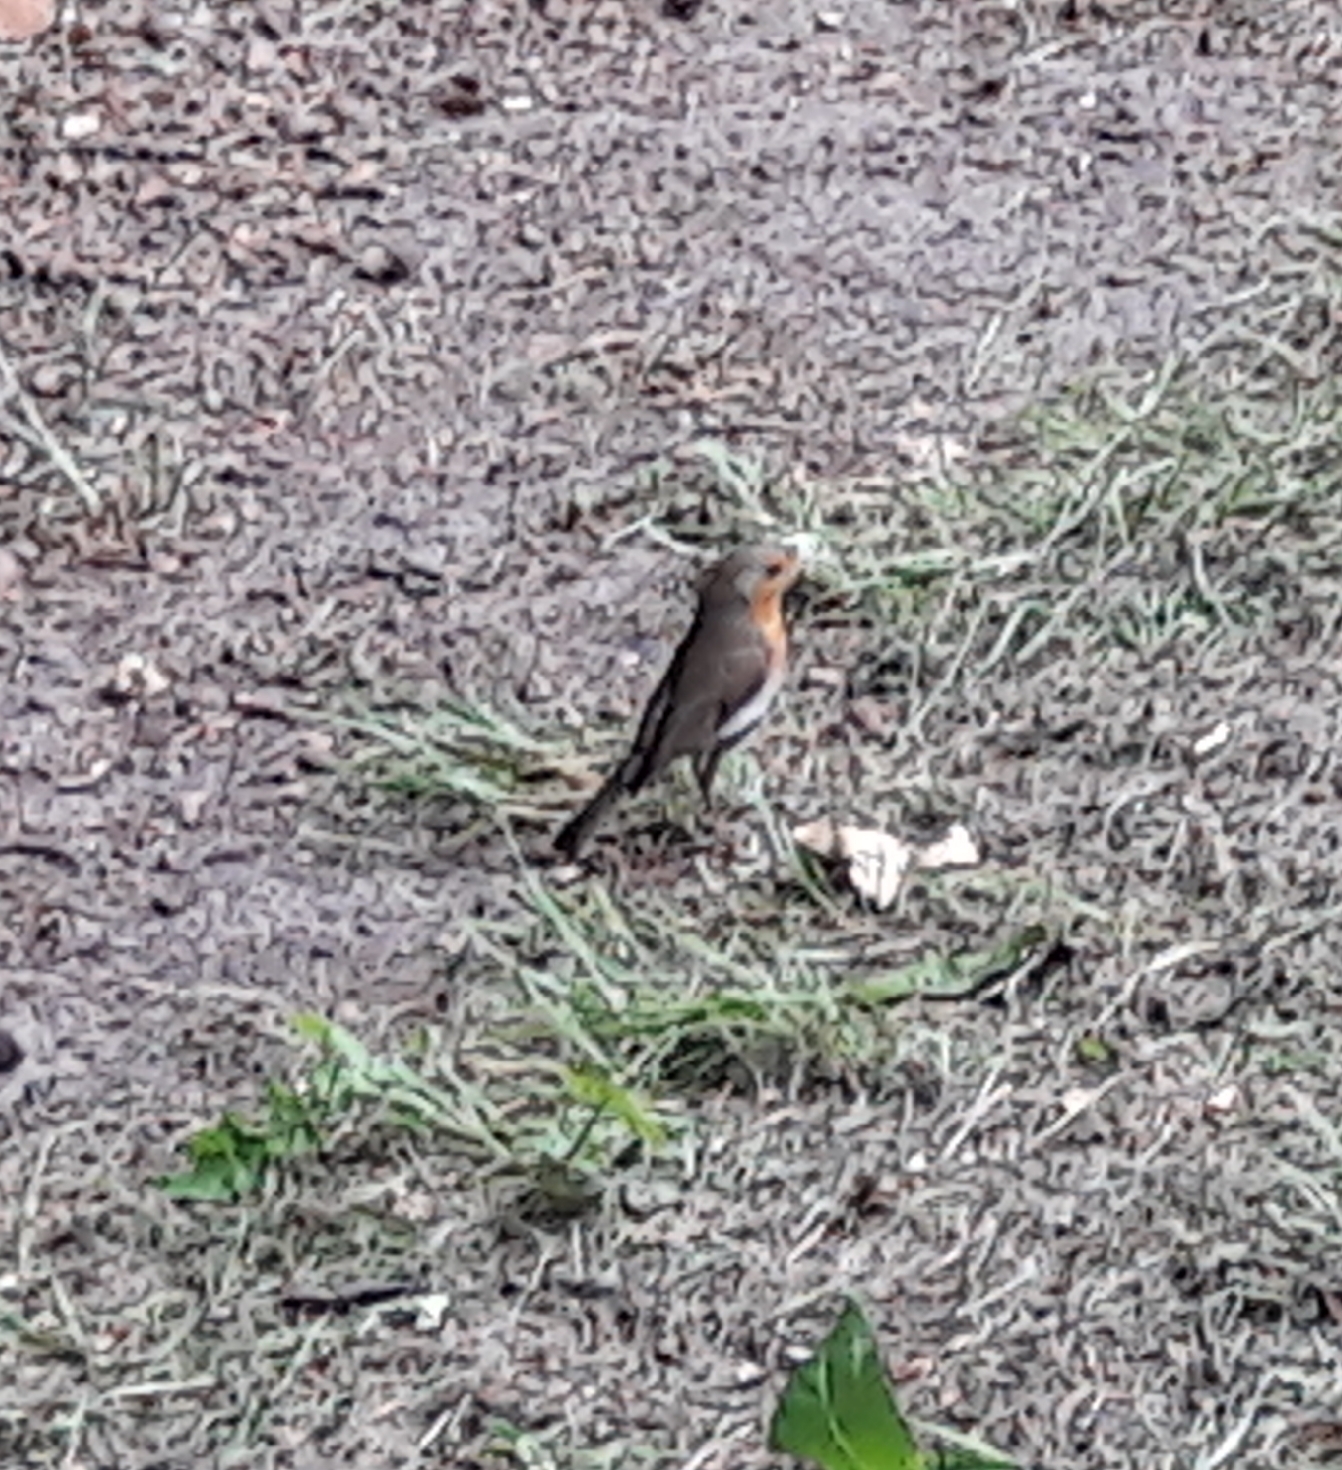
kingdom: Animalia
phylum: Chordata
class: Aves
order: Passeriformes
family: Muscicapidae
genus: Erithacus
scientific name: Erithacus rubecula
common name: European robin
